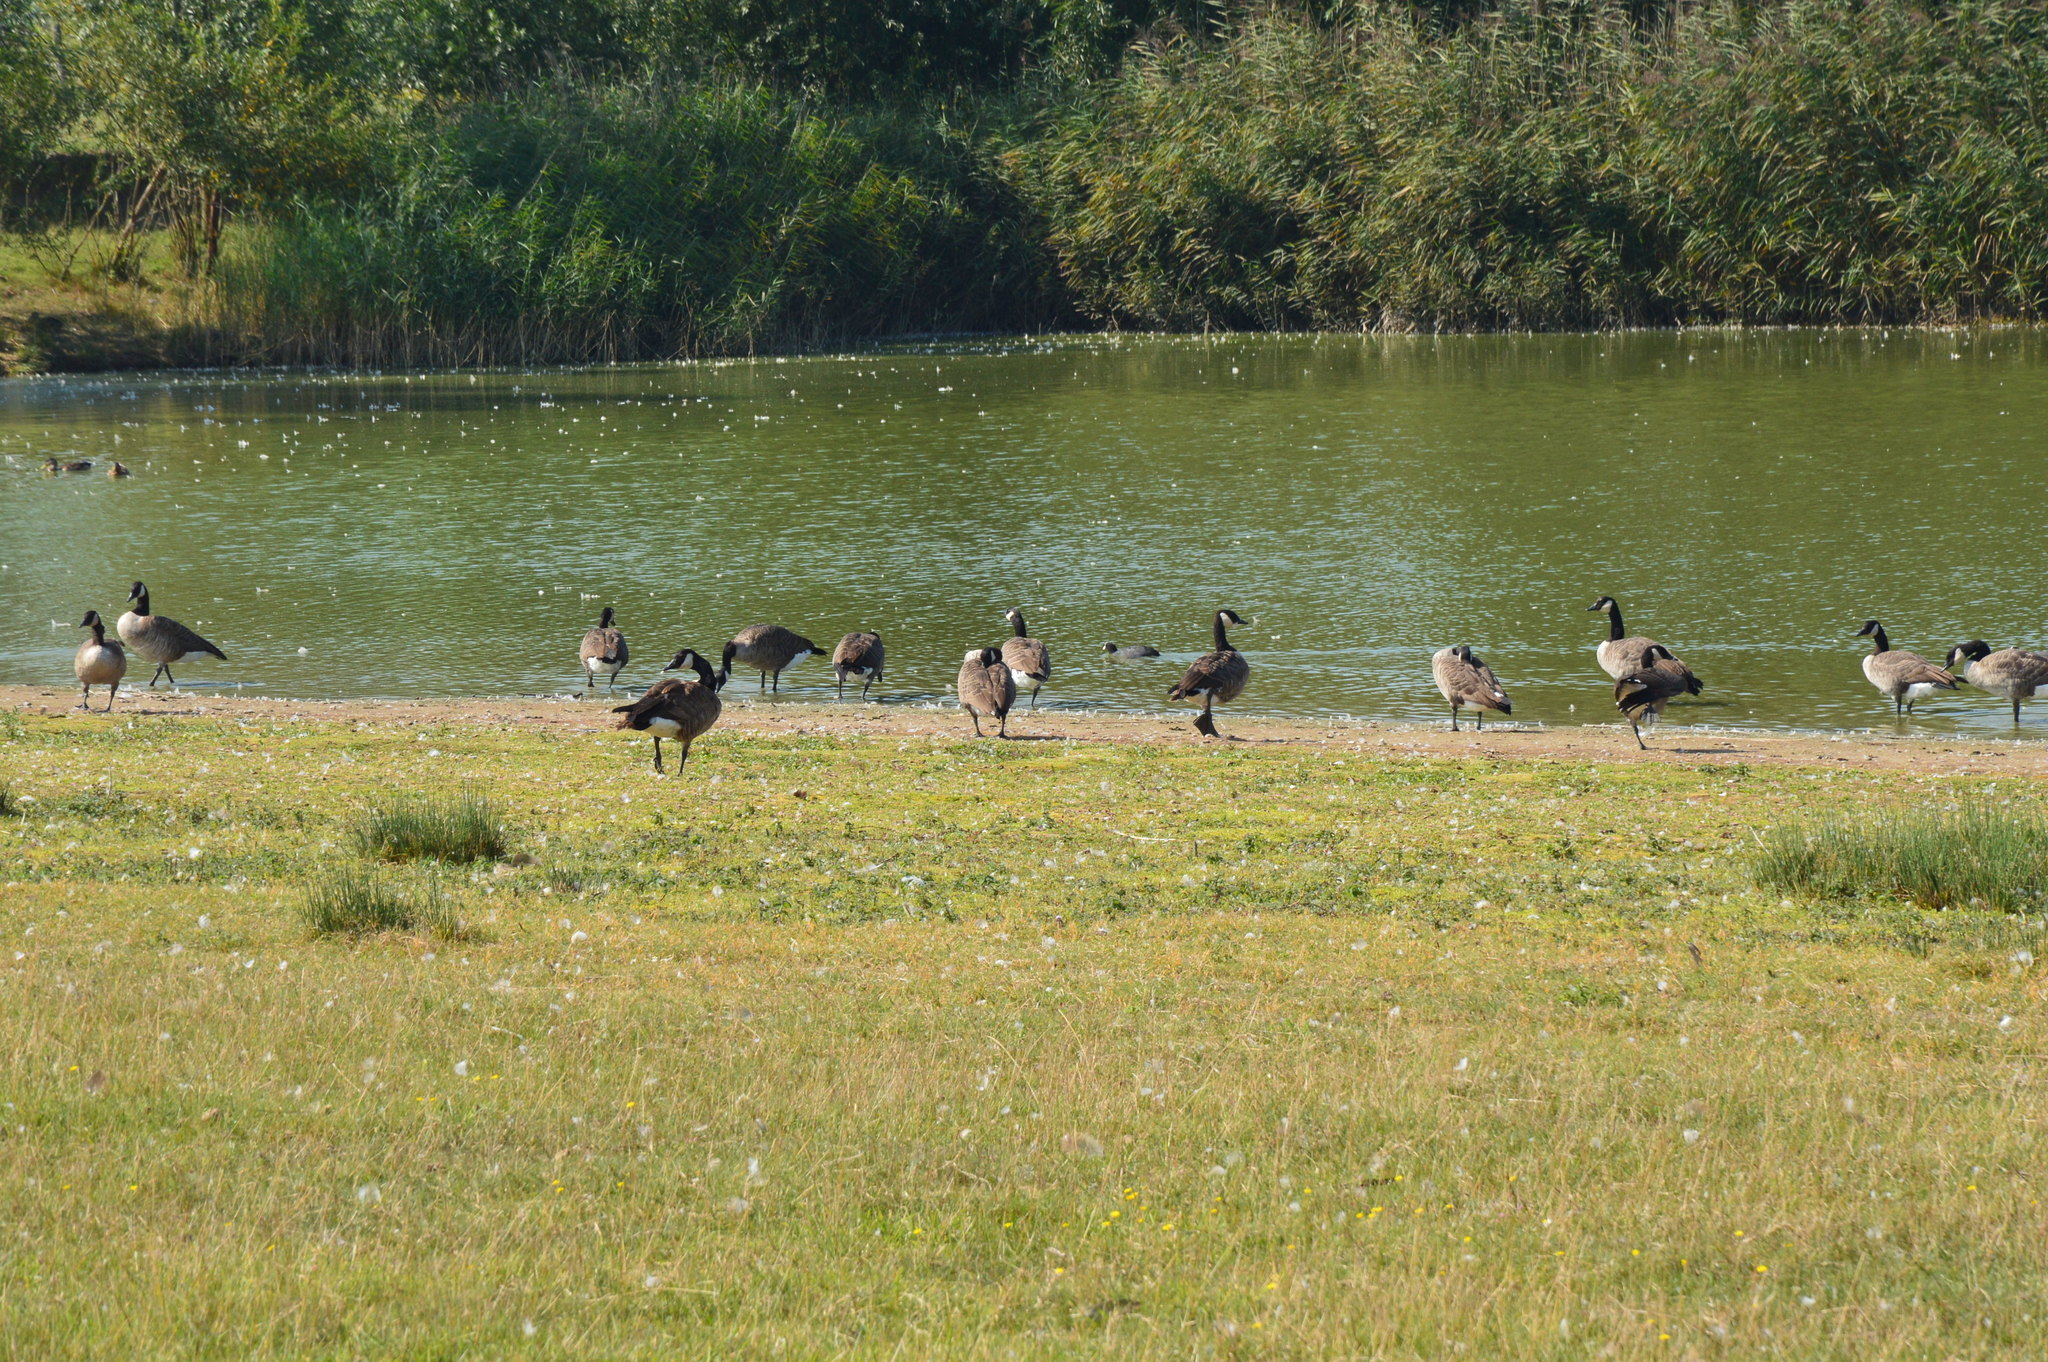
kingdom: Animalia
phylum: Chordata
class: Aves
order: Anseriformes
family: Anatidae
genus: Branta
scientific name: Branta canadensis
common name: Canada goose
